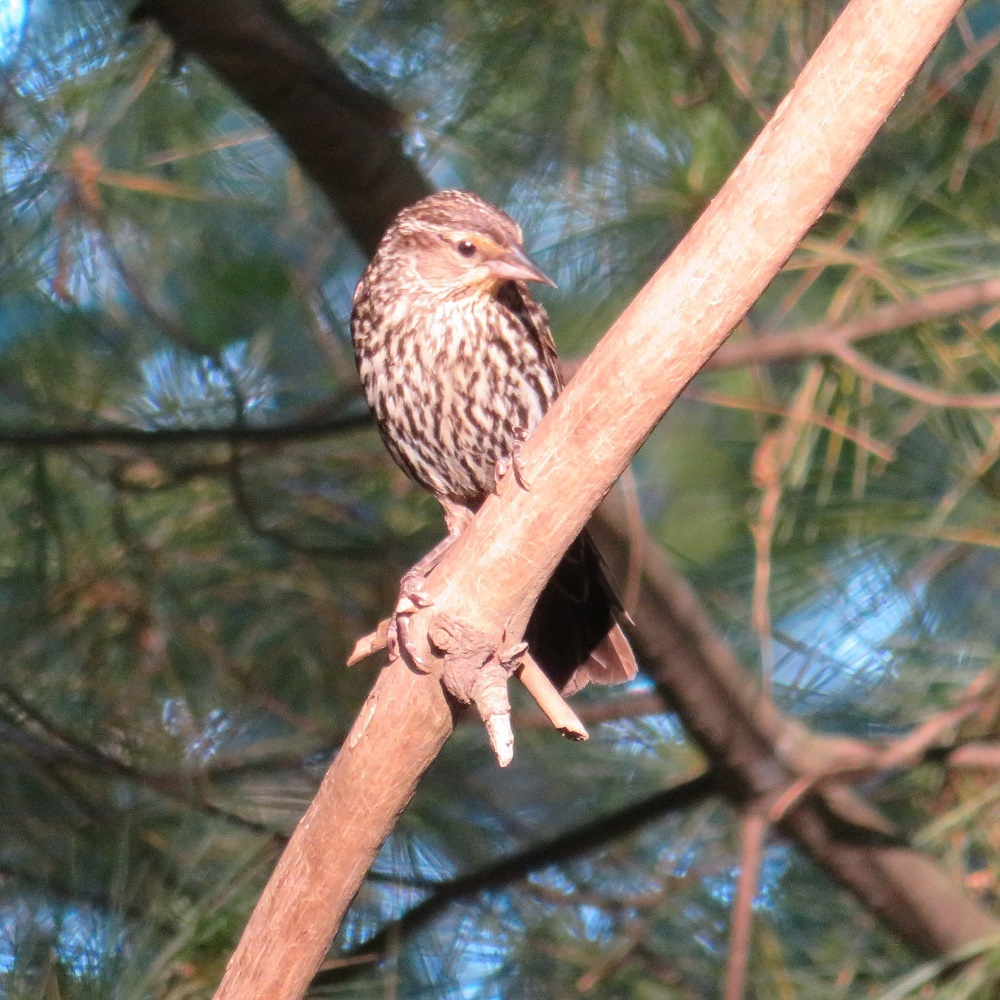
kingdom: Animalia
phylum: Chordata
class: Aves
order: Passeriformes
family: Icteridae
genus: Agelaius
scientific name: Agelaius phoeniceus
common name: Red-winged blackbird
